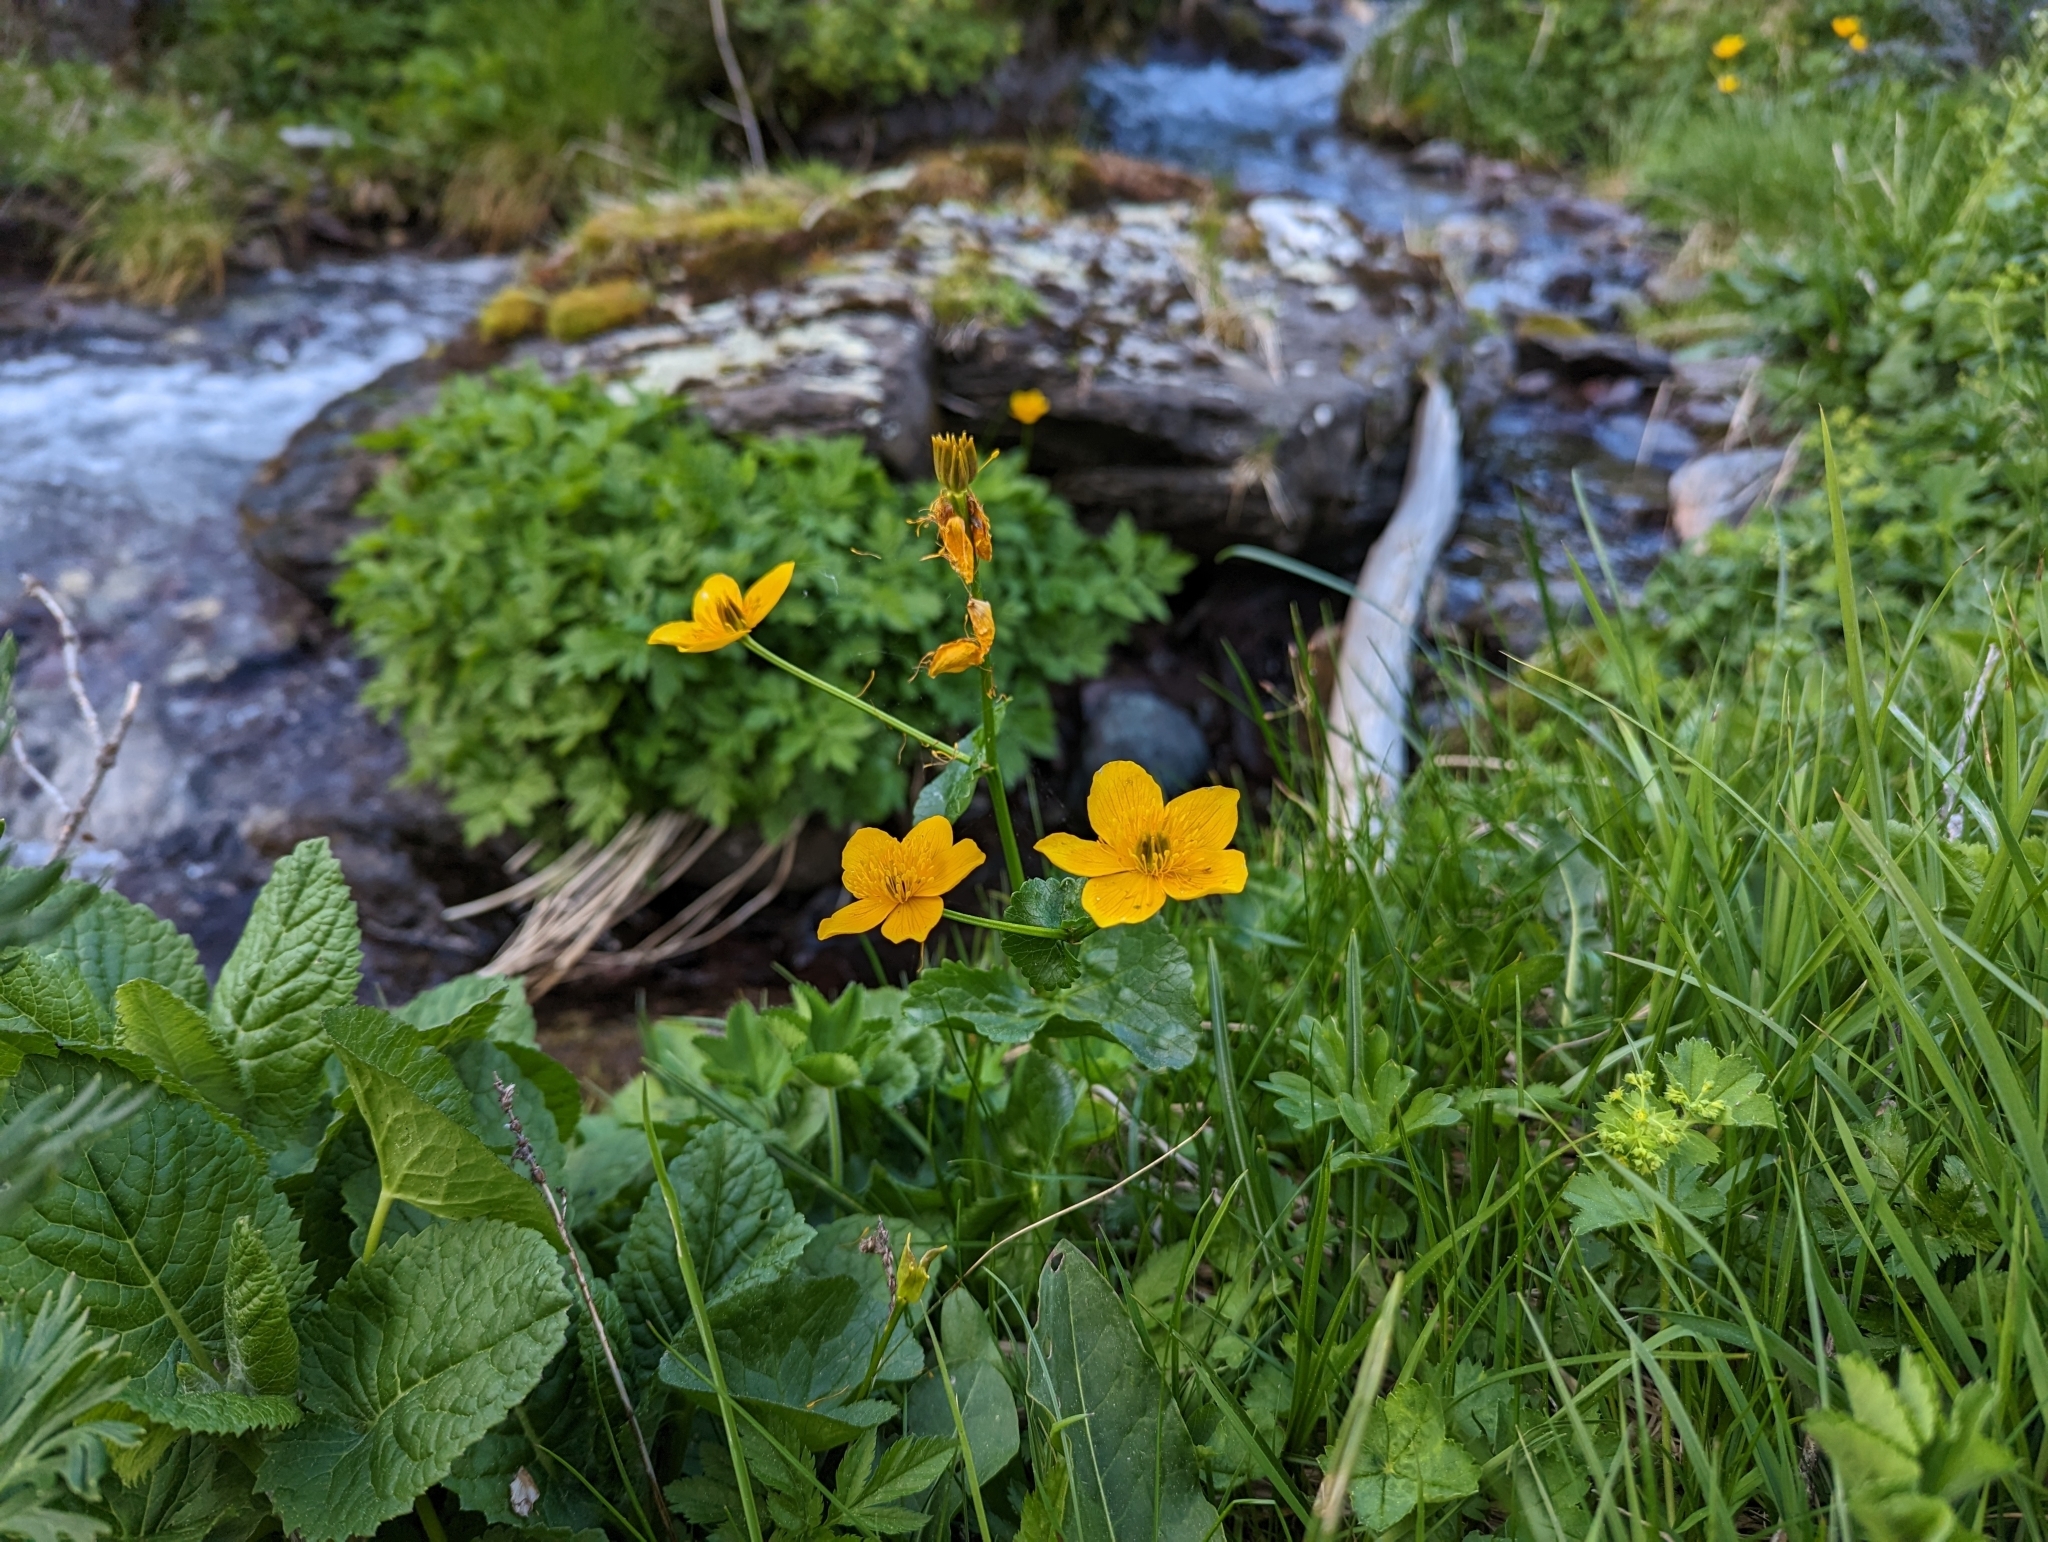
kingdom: Plantae
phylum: Tracheophyta
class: Magnoliopsida
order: Ranunculales
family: Ranunculaceae
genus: Caltha
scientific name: Caltha palustris
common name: Marsh marigold
